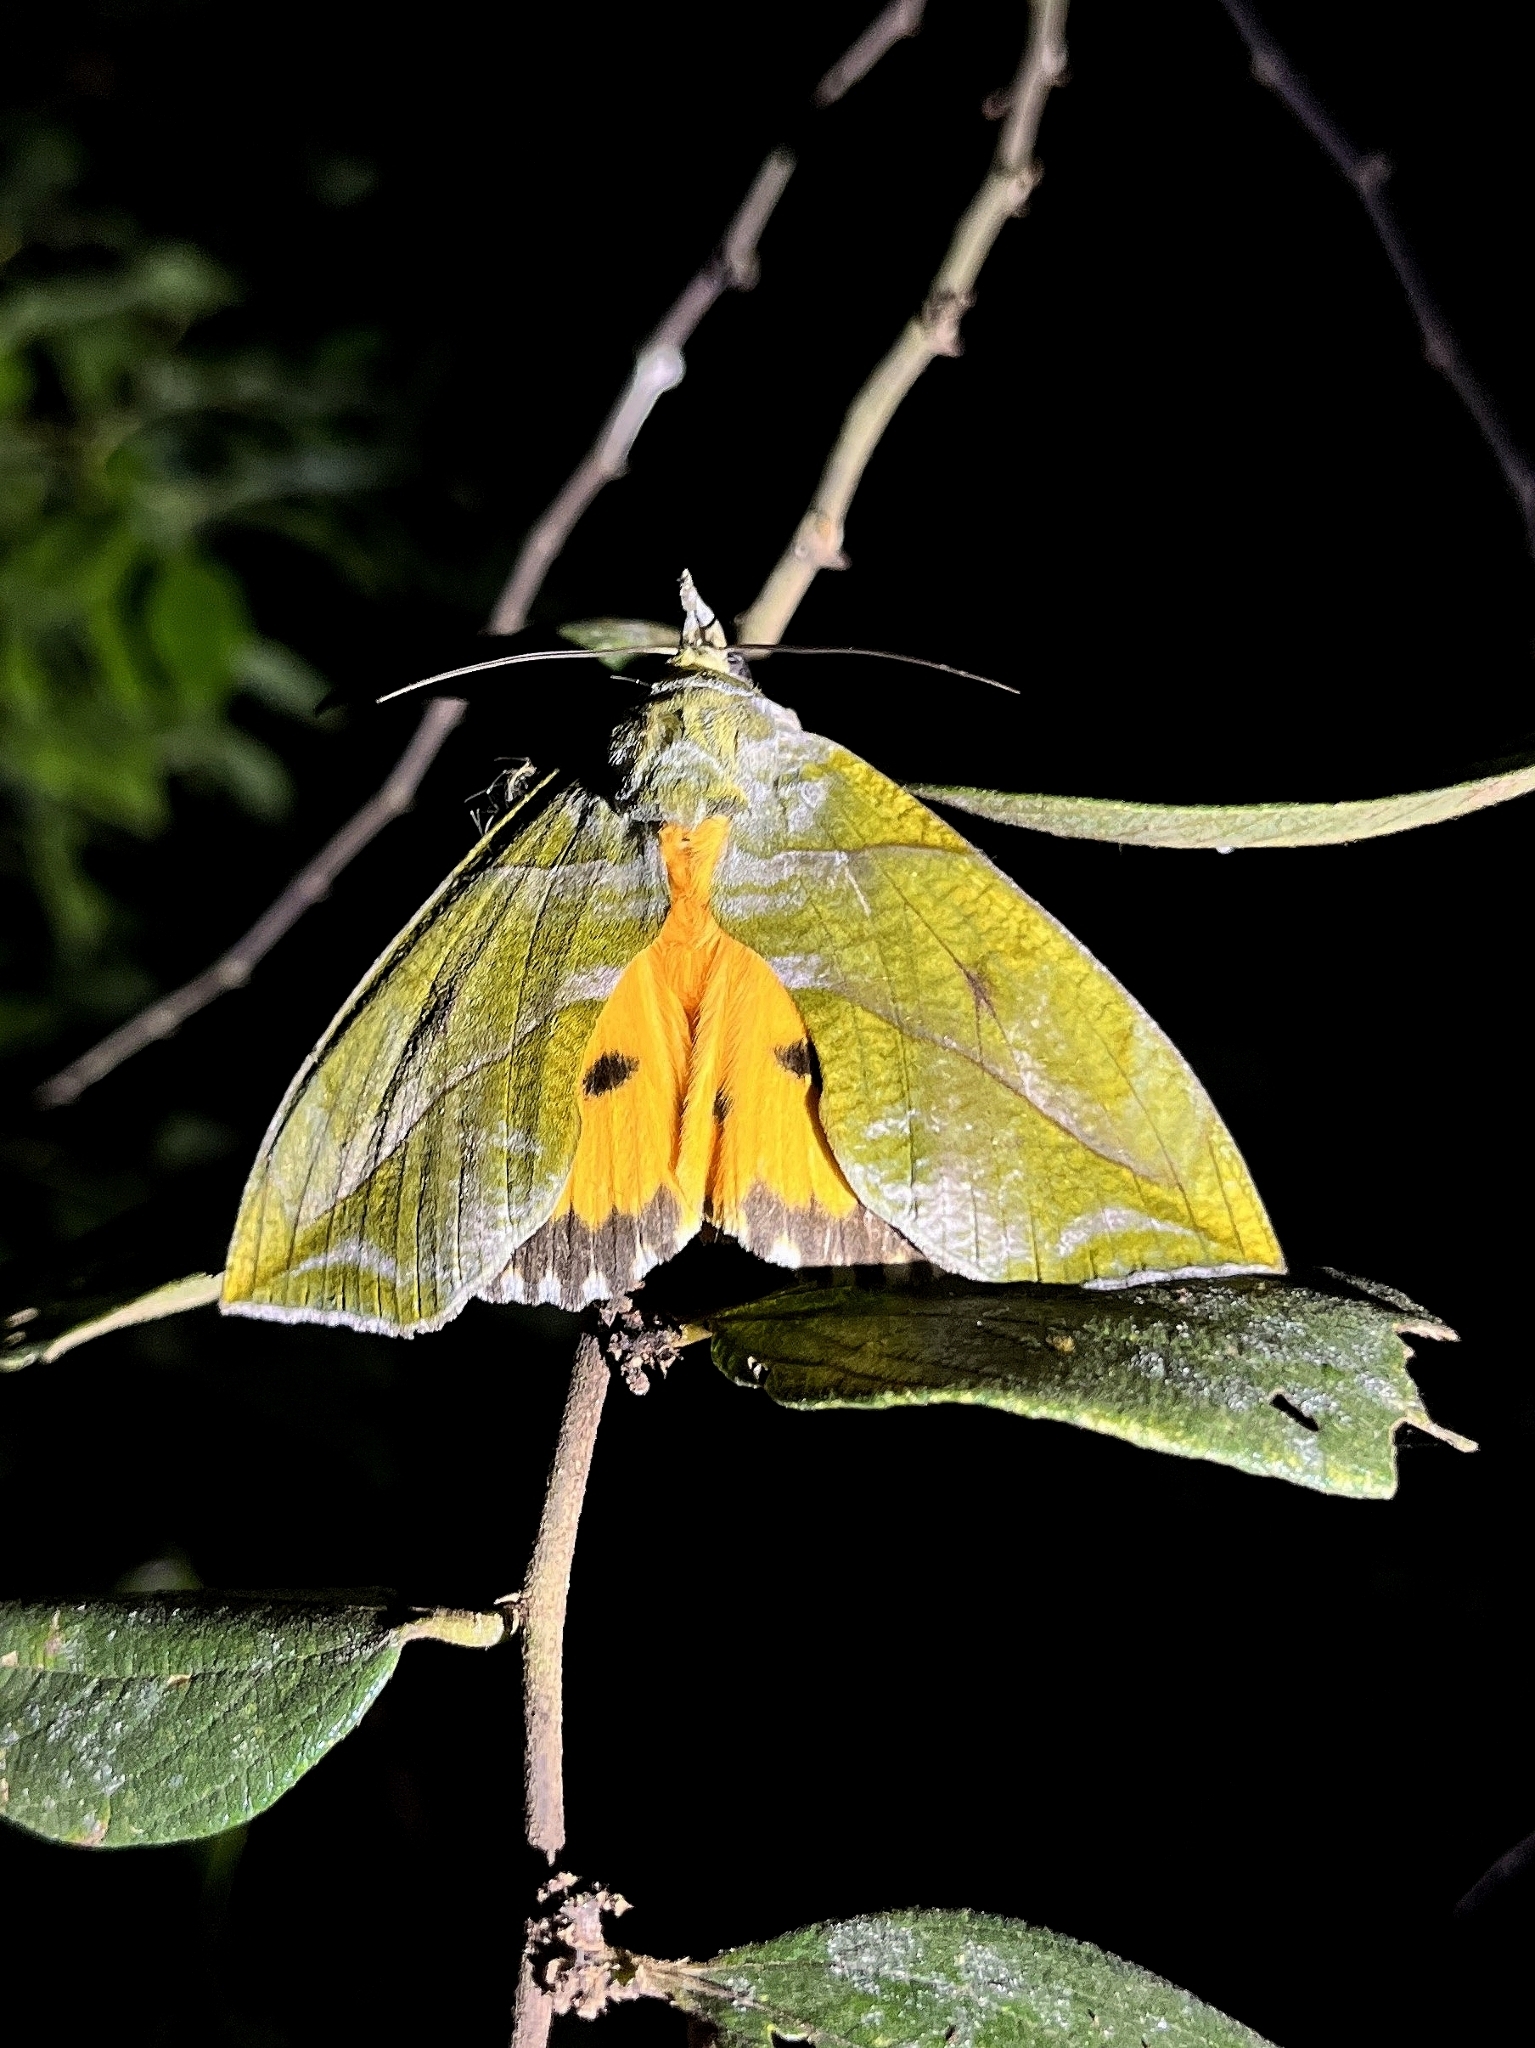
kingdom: Animalia
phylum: Arthropoda
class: Insecta
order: Lepidoptera
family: Erebidae
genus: Eudocima
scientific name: Eudocima hypermnestra
